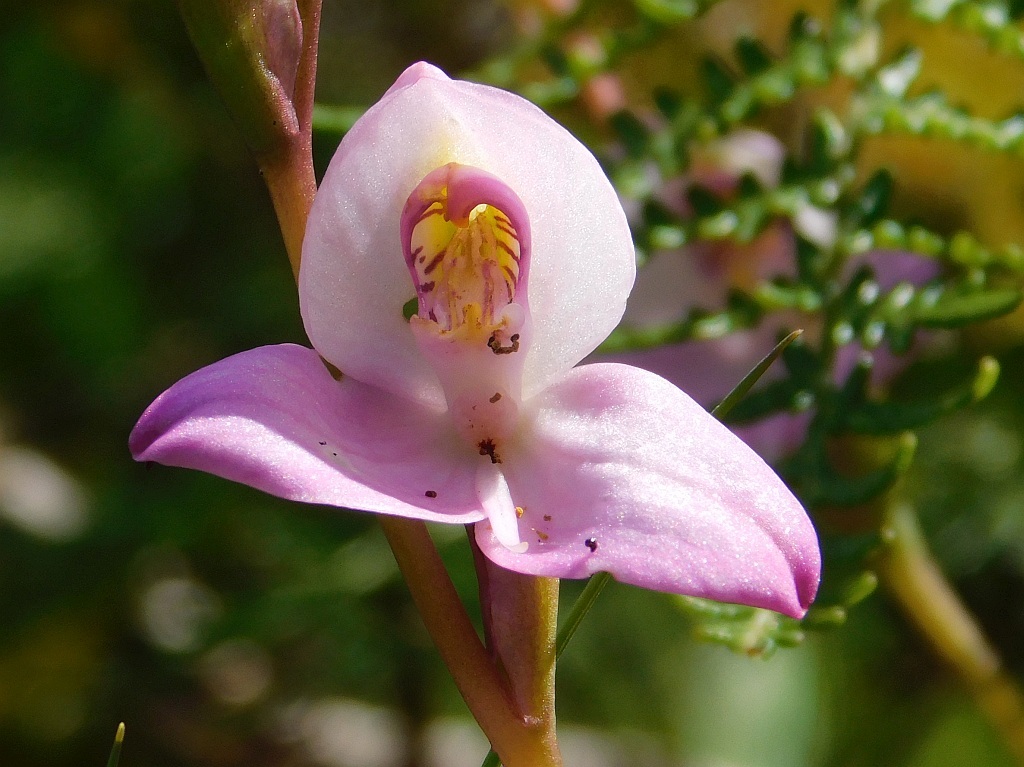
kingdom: Plantae
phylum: Tracheophyta
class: Liliopsida
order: Asparagales
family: Orchidaceae
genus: Disa
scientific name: Disa racemosa
